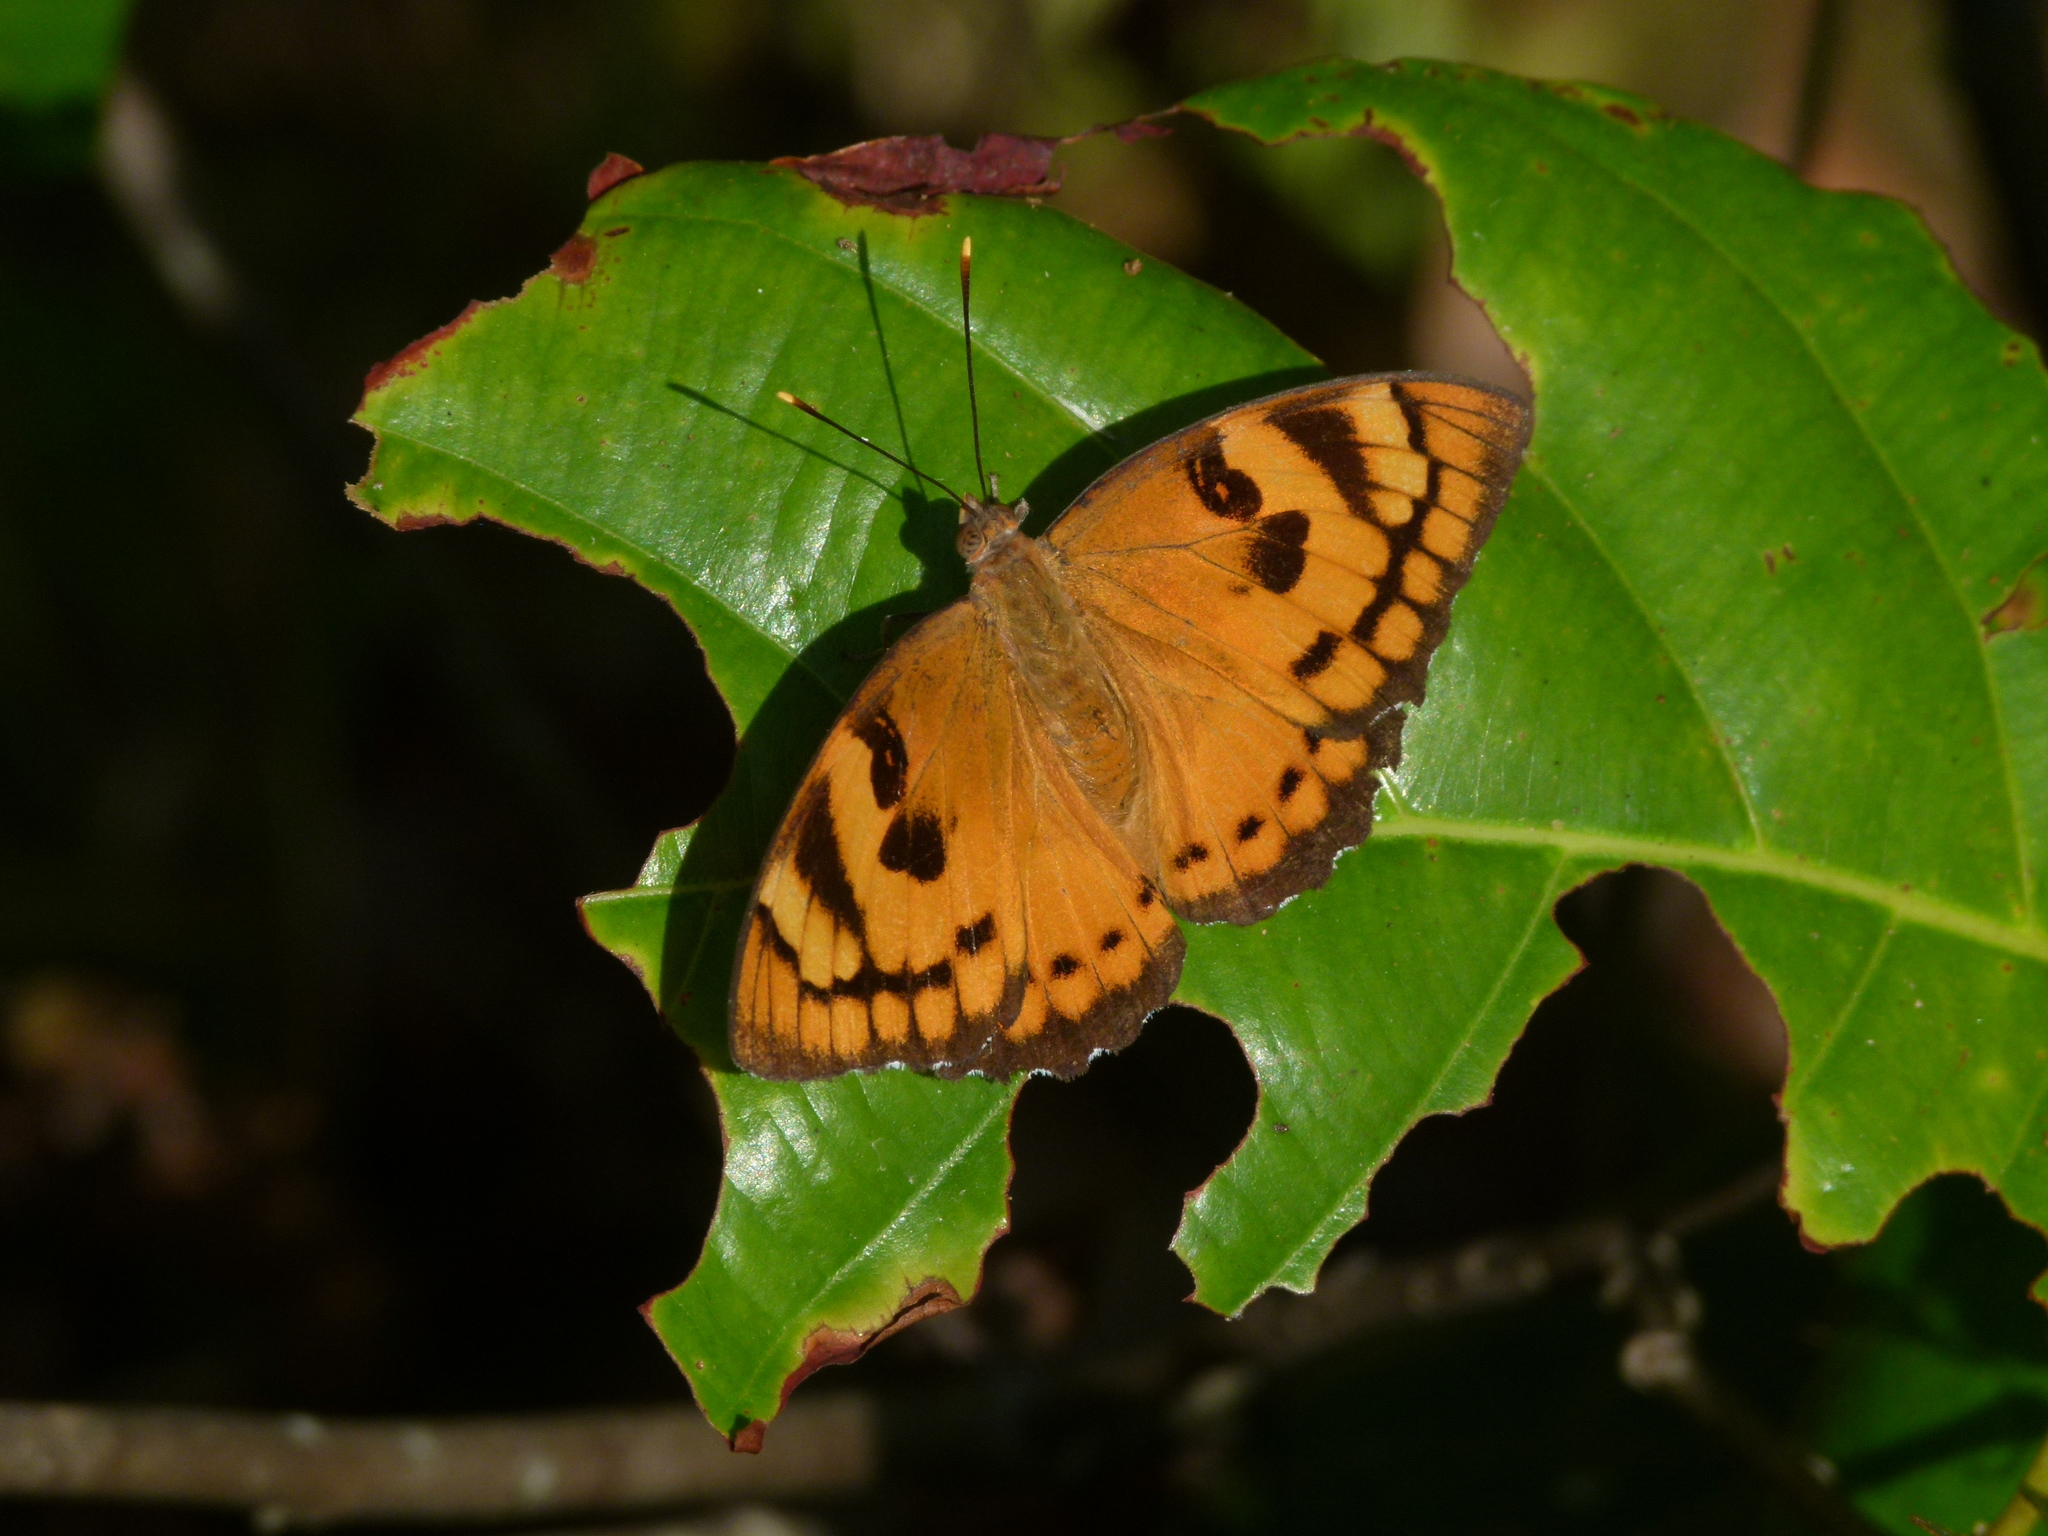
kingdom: Animalia
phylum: Arthropoda
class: Insecta
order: Lepidoptera
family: Nymphalidae
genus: Euthalia
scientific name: Euthalia nais
